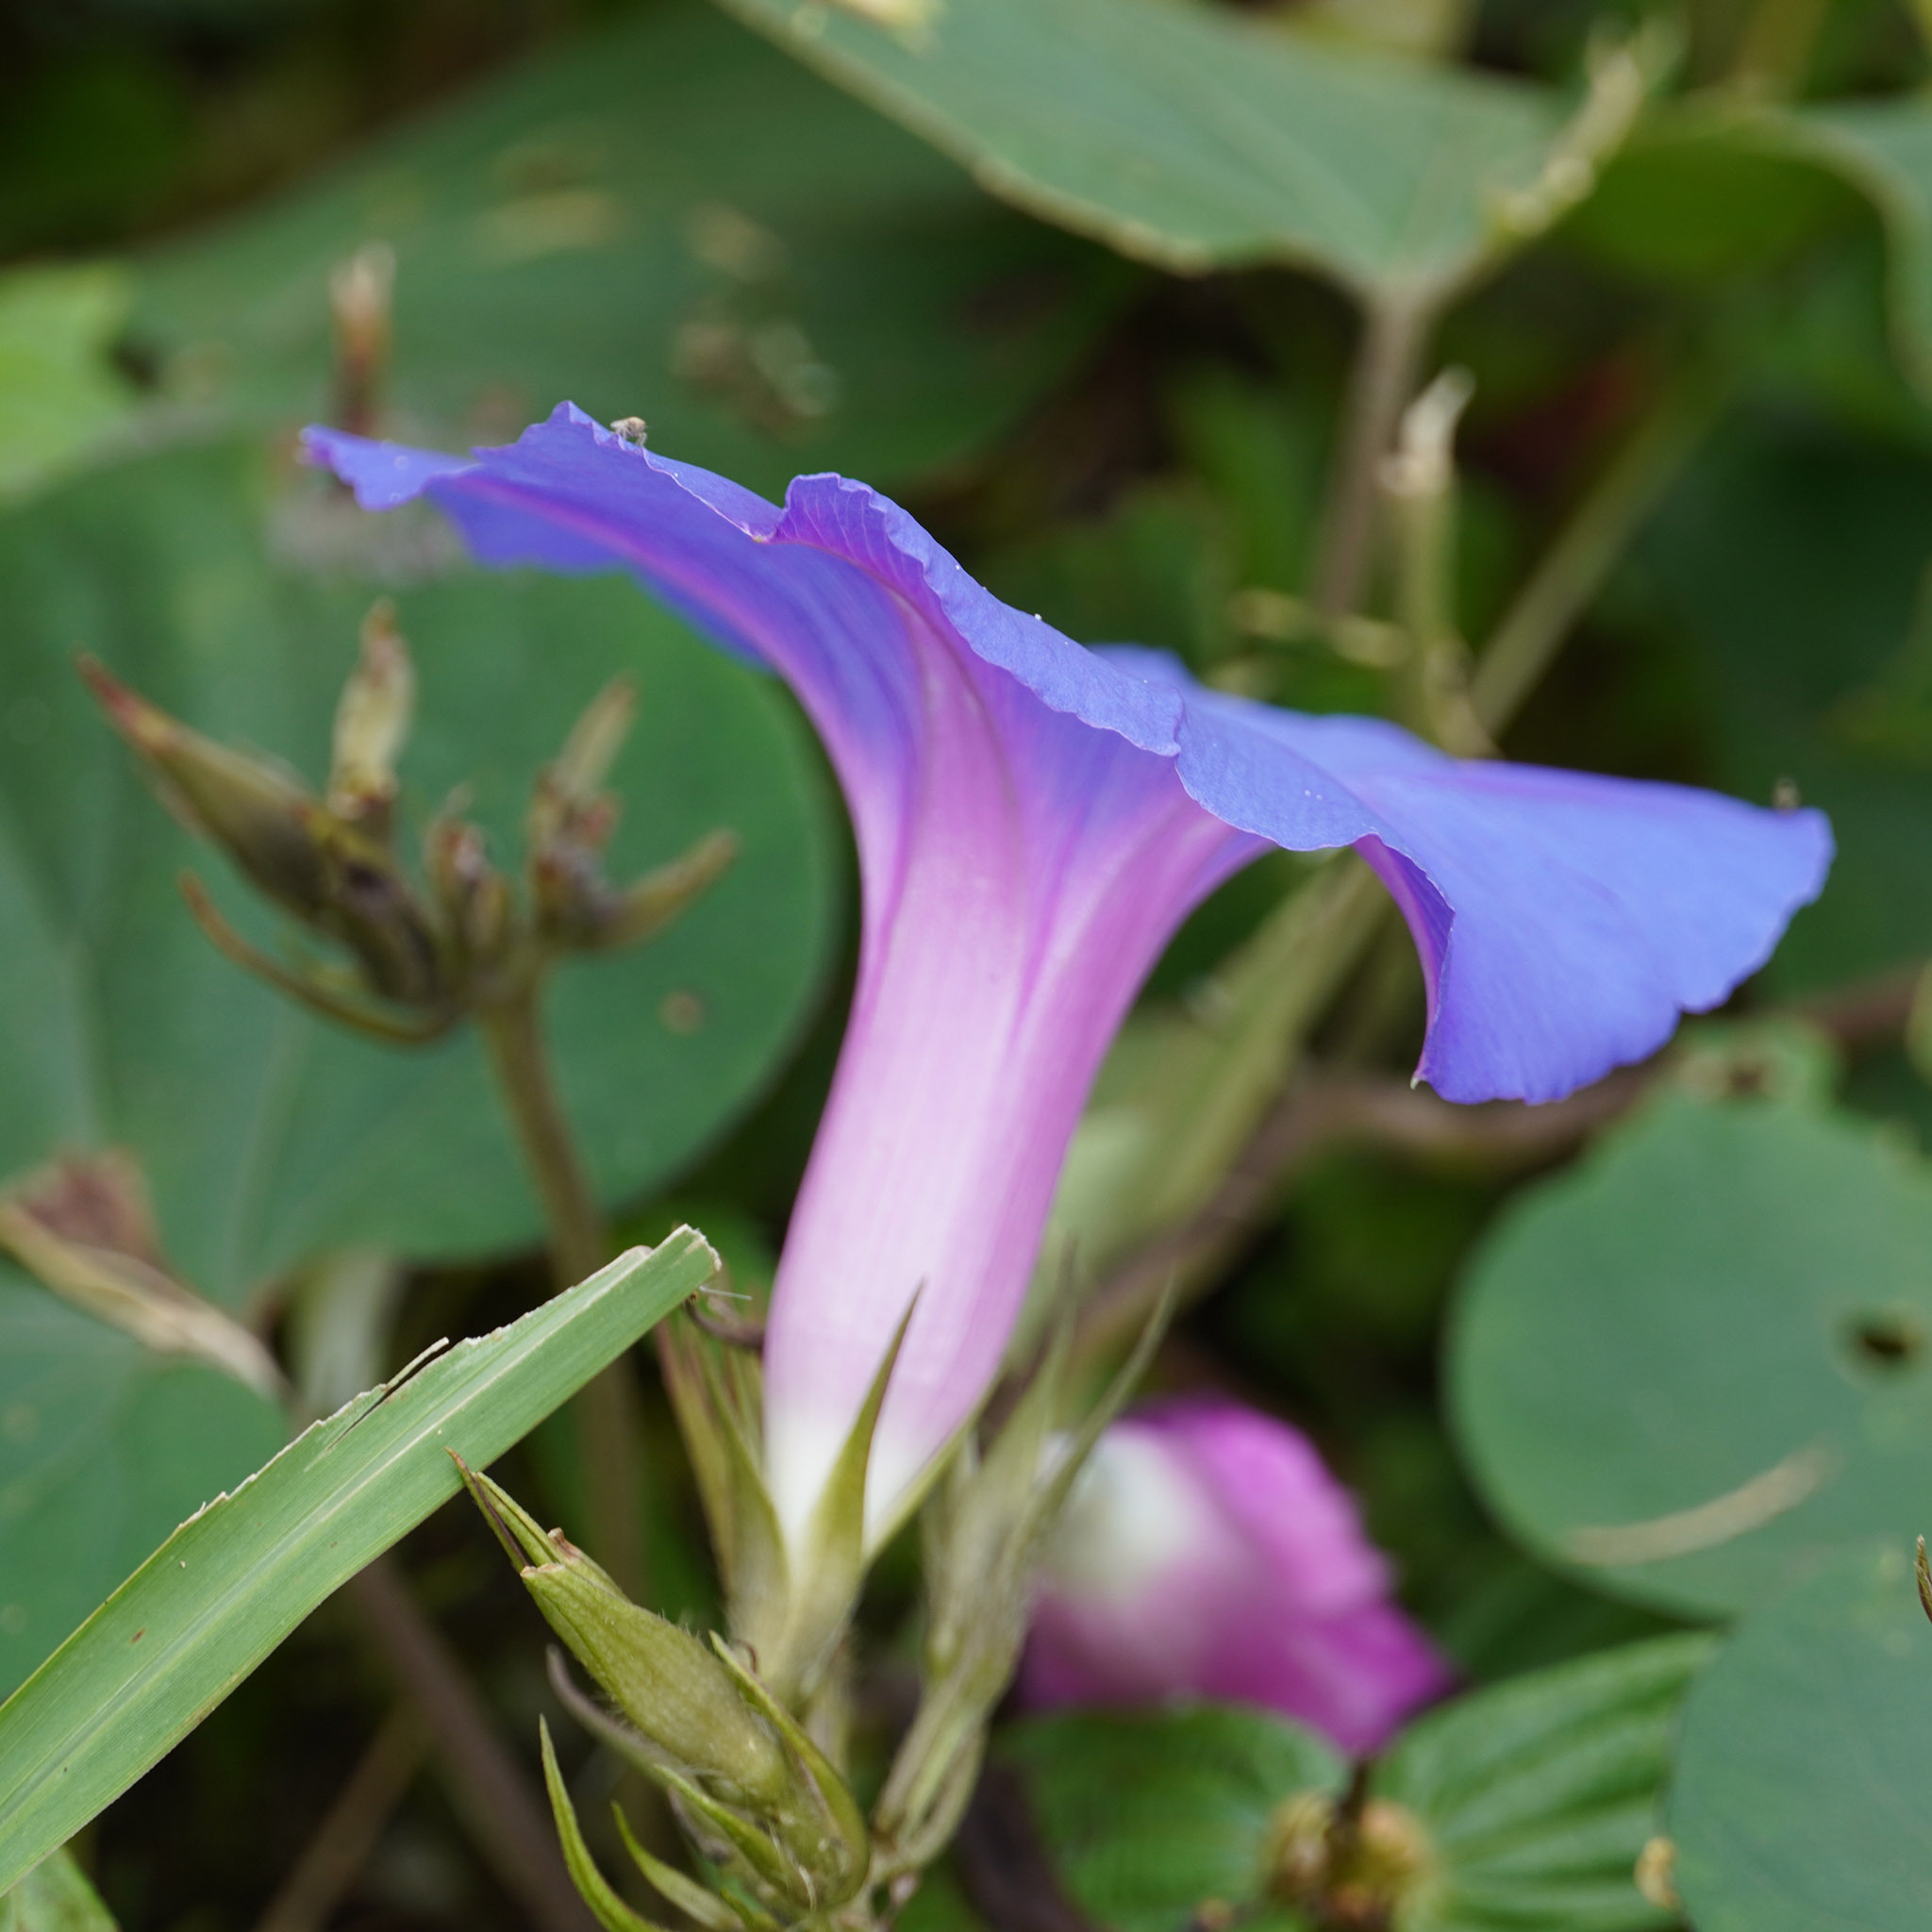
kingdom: Plantae
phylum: Tracheophyta
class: Magnoliopsida
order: Solanales
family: Convolvulaceae
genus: Ipomoea
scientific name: Ipomoea indica
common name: Blue dawnflower
